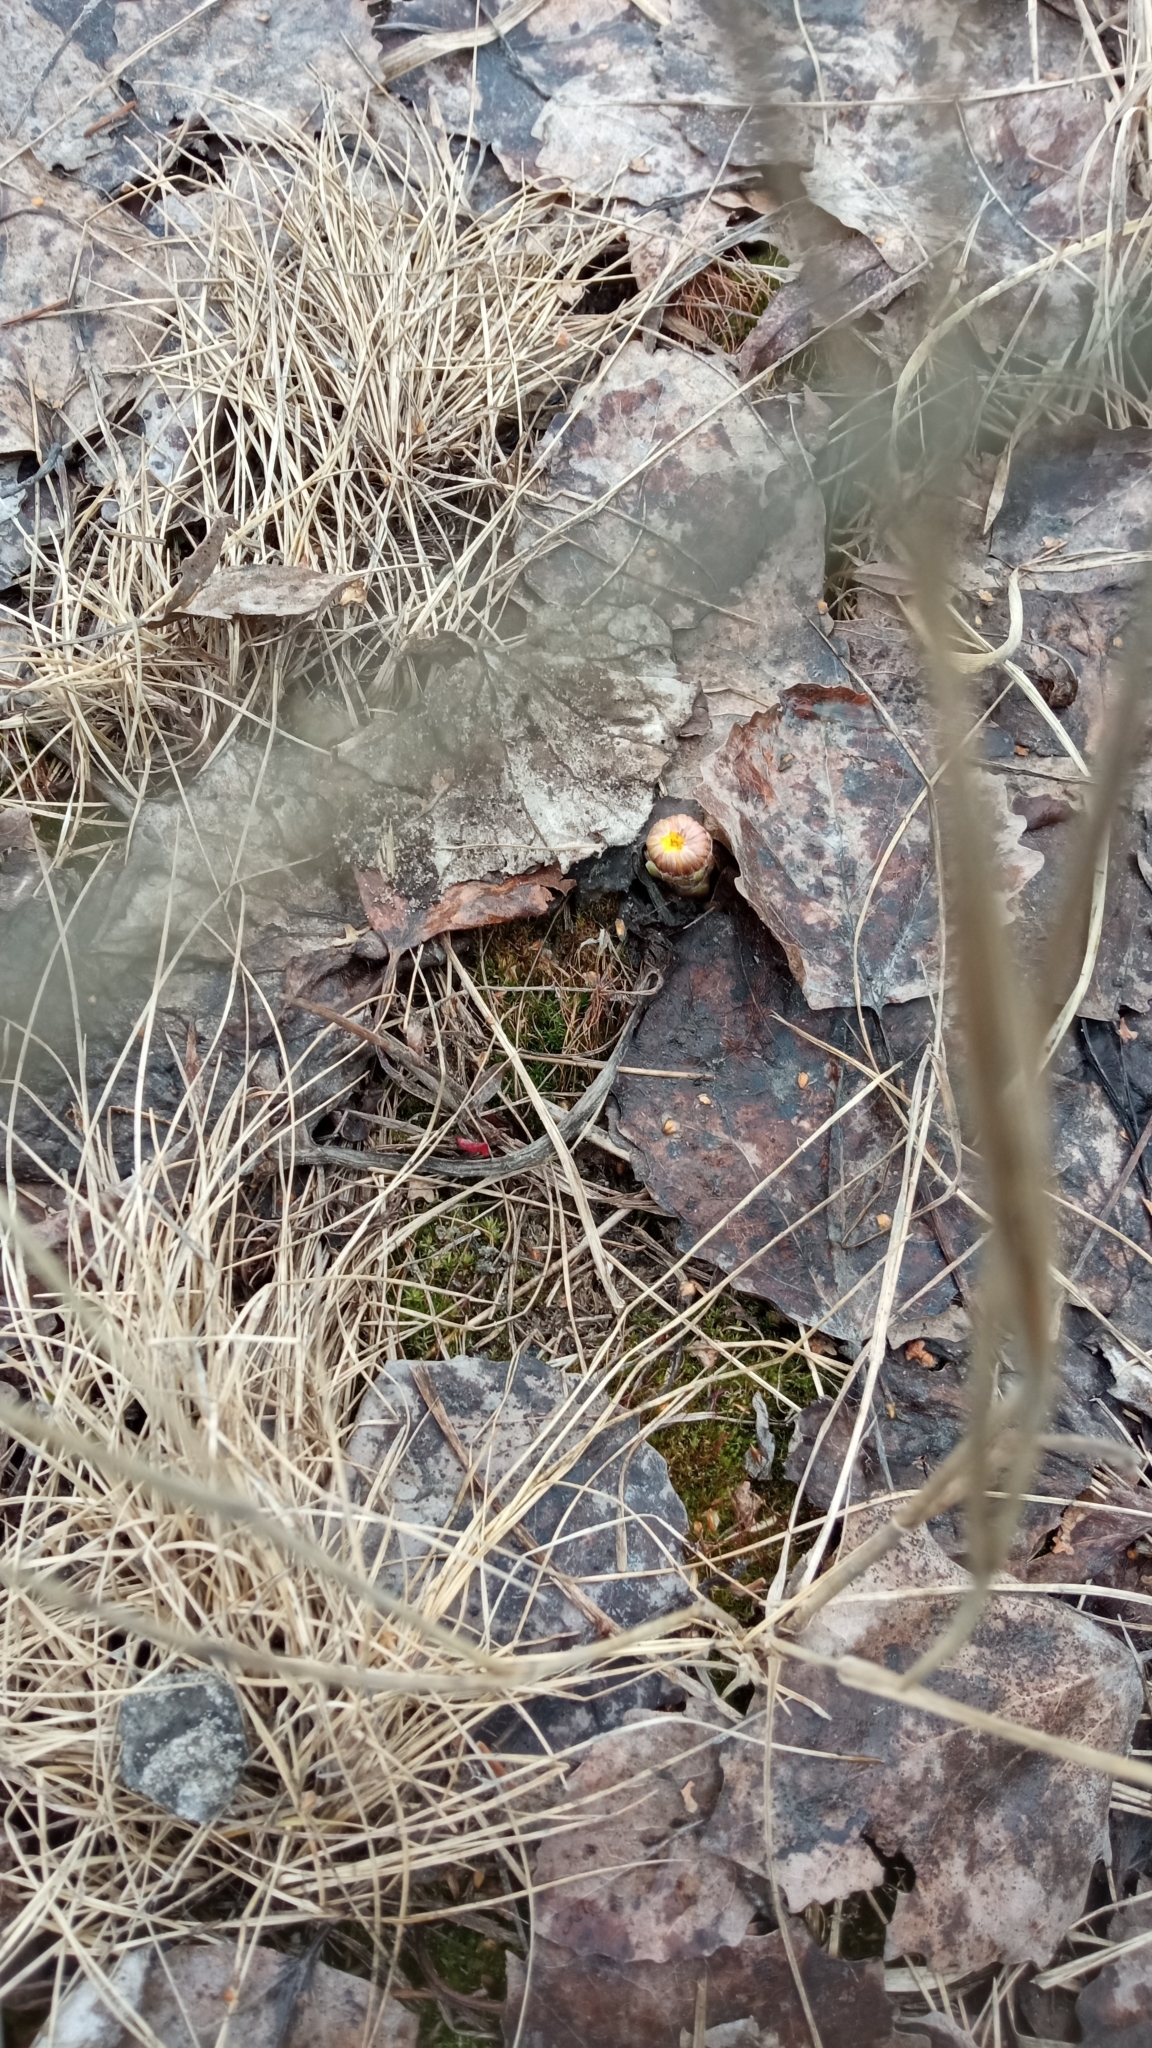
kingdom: Plantae
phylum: Tracheophyta
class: Magnoliopsida
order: Asterales
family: Asteraceae
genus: Tussilago
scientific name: Tussilago farfara
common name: Coltsfoot
